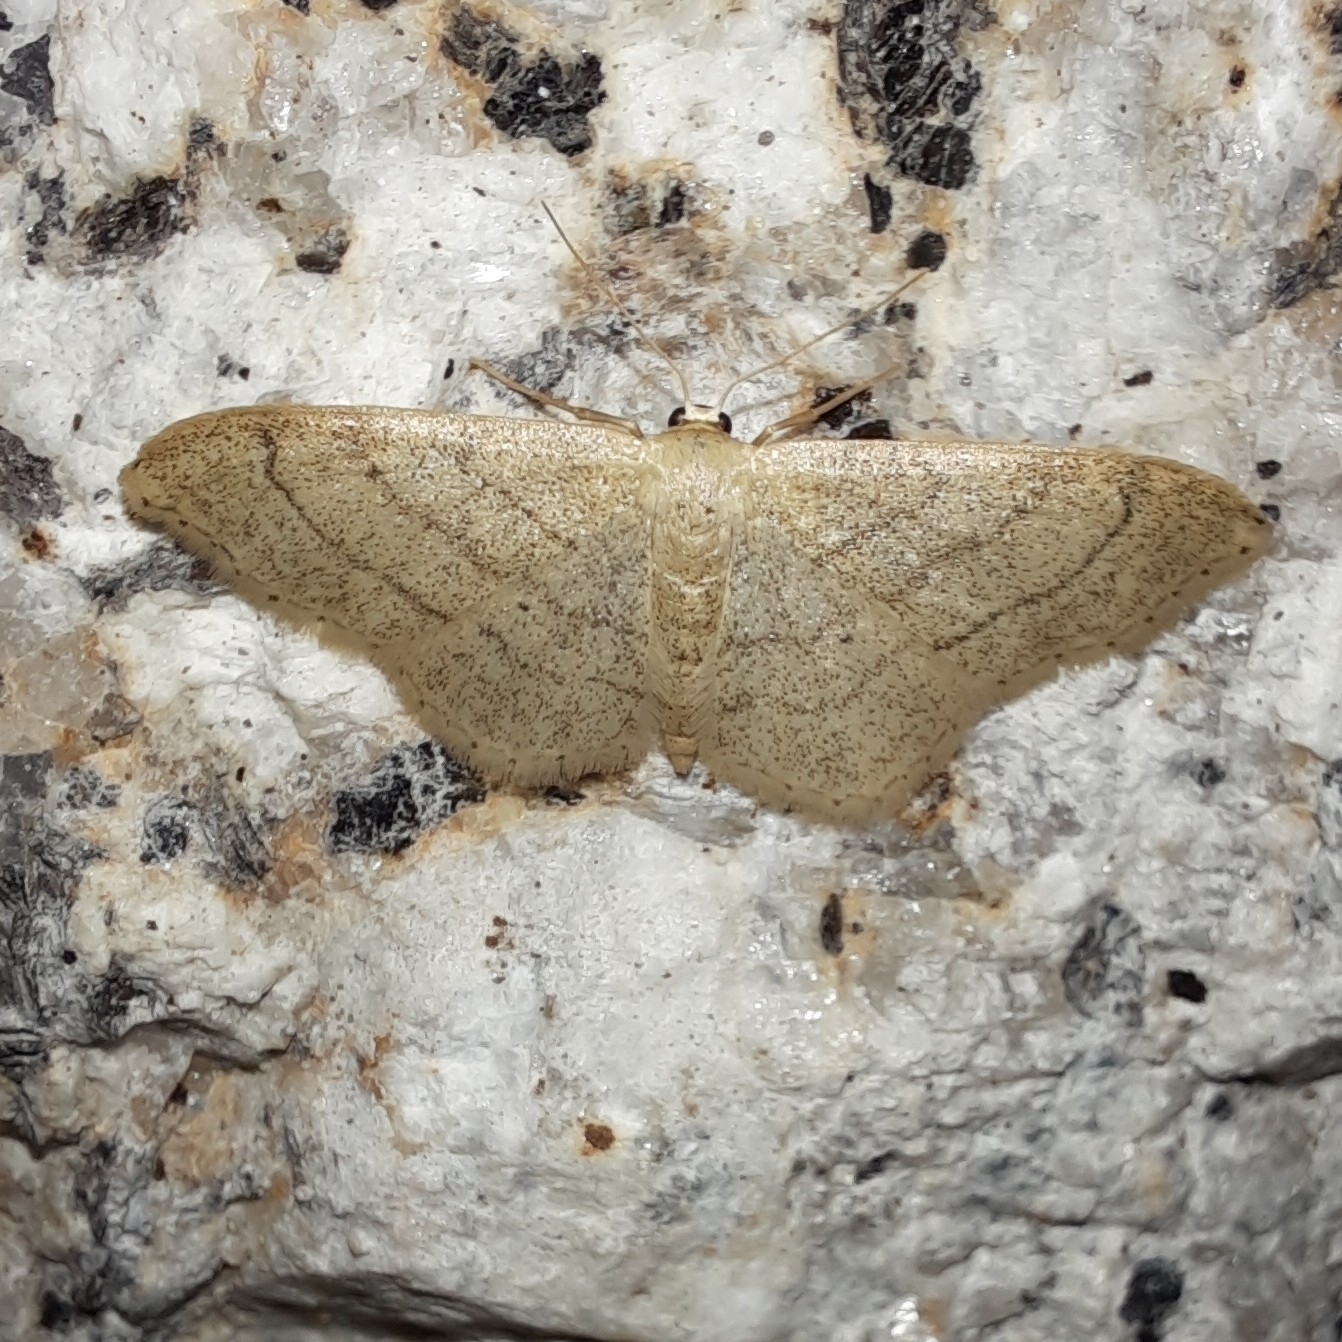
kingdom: Animalia
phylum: Arthropoda
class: Insecta
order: Lepidoptera
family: Geometridae
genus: Idaea
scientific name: Idaea aversata
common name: Riband wave
